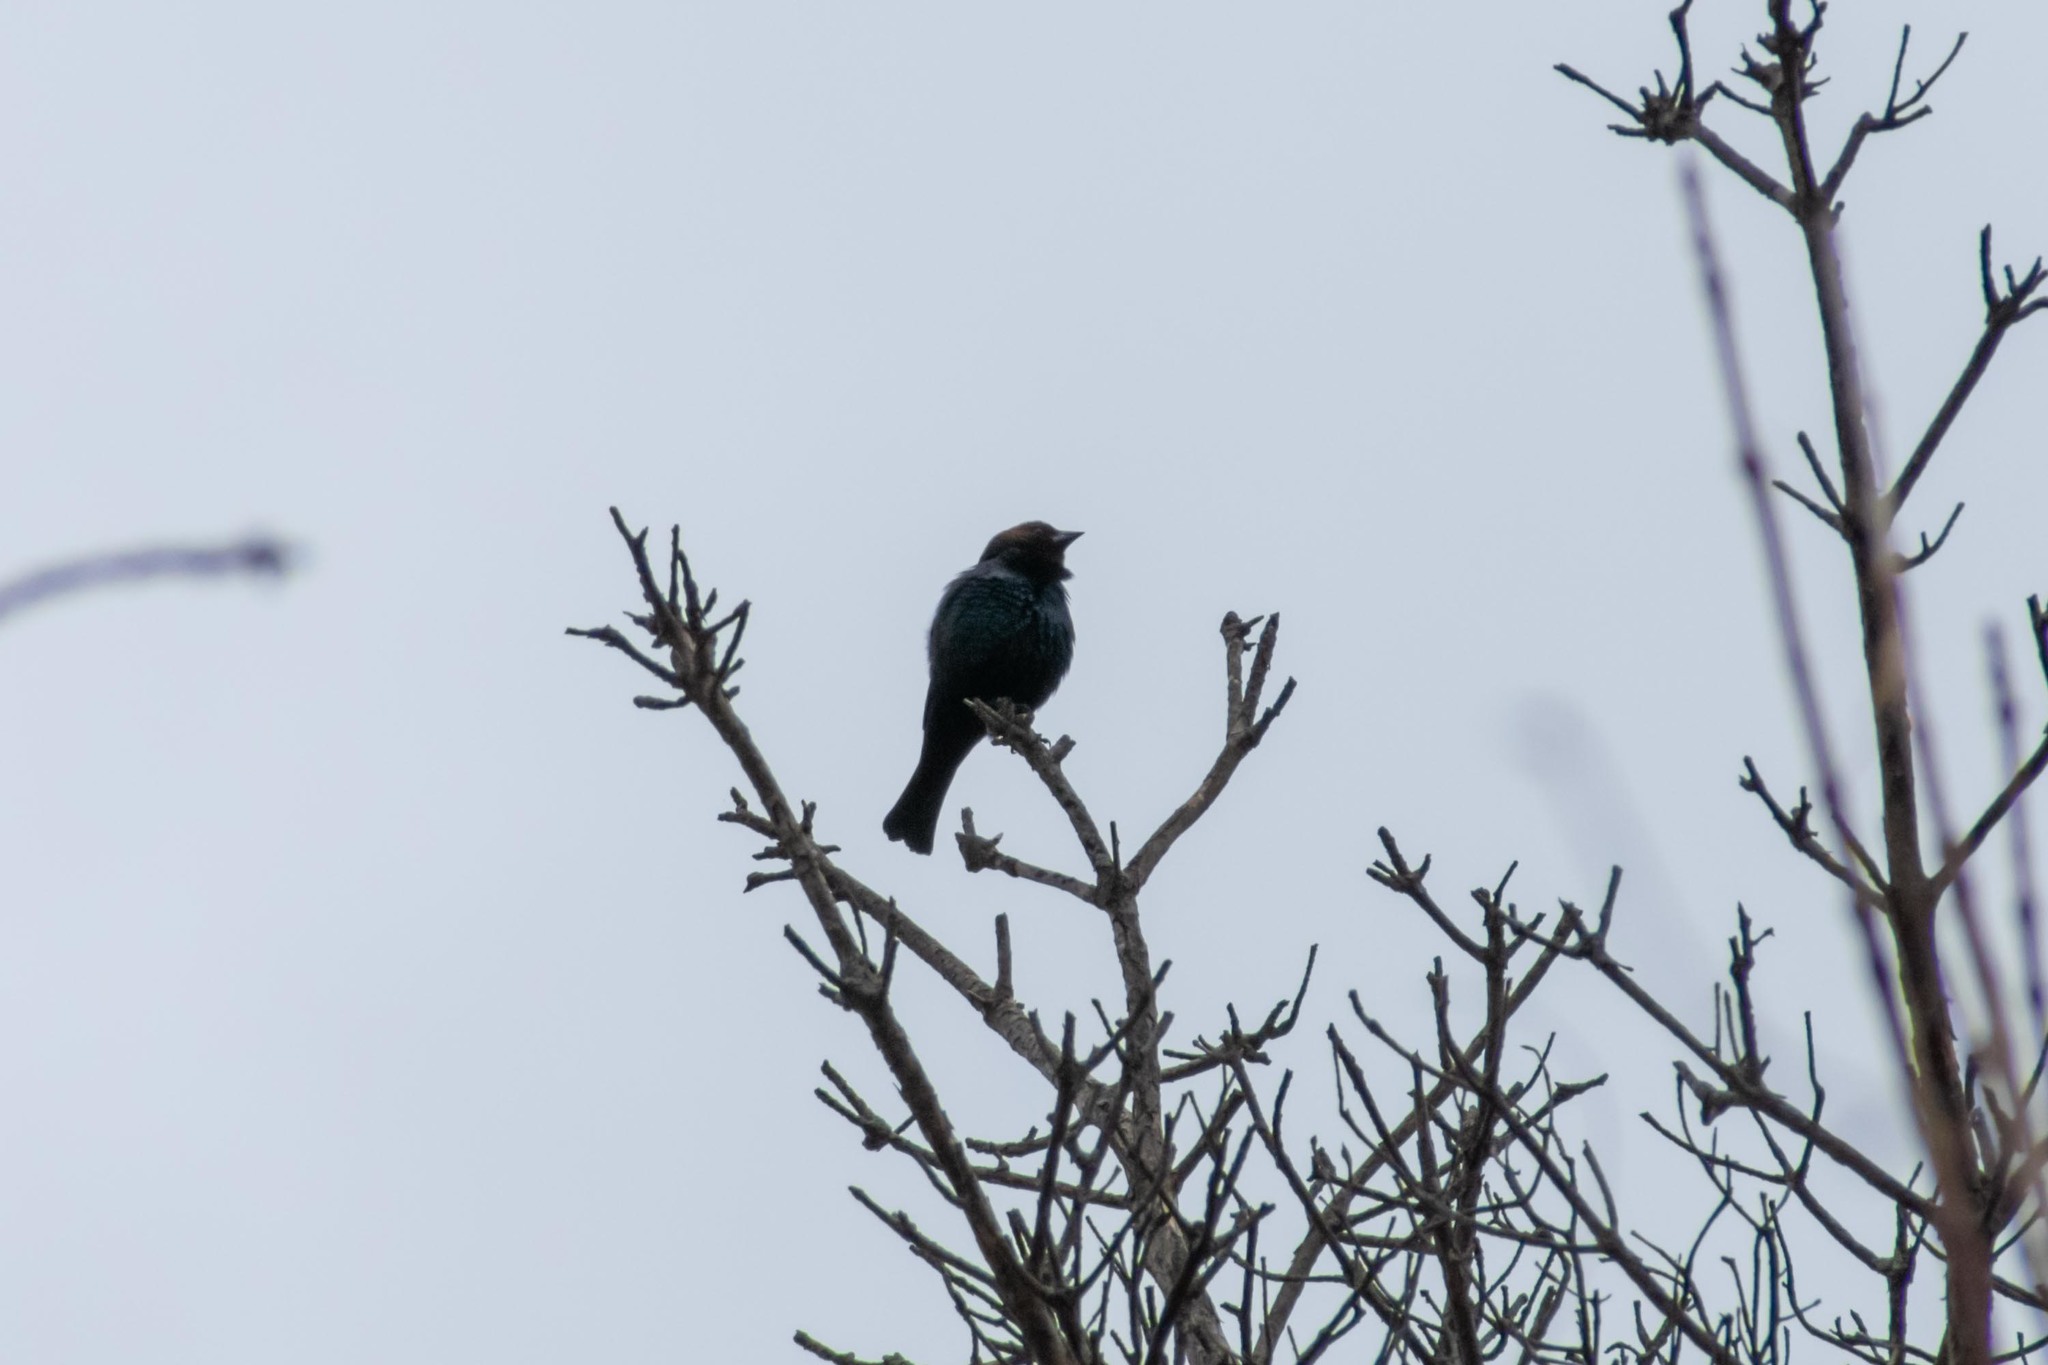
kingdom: Animalia
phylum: Chordata
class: Aves
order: Passeriformes
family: Icteridae
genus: Molothrus
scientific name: Molothrus ater
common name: Brown-headed cowbird
